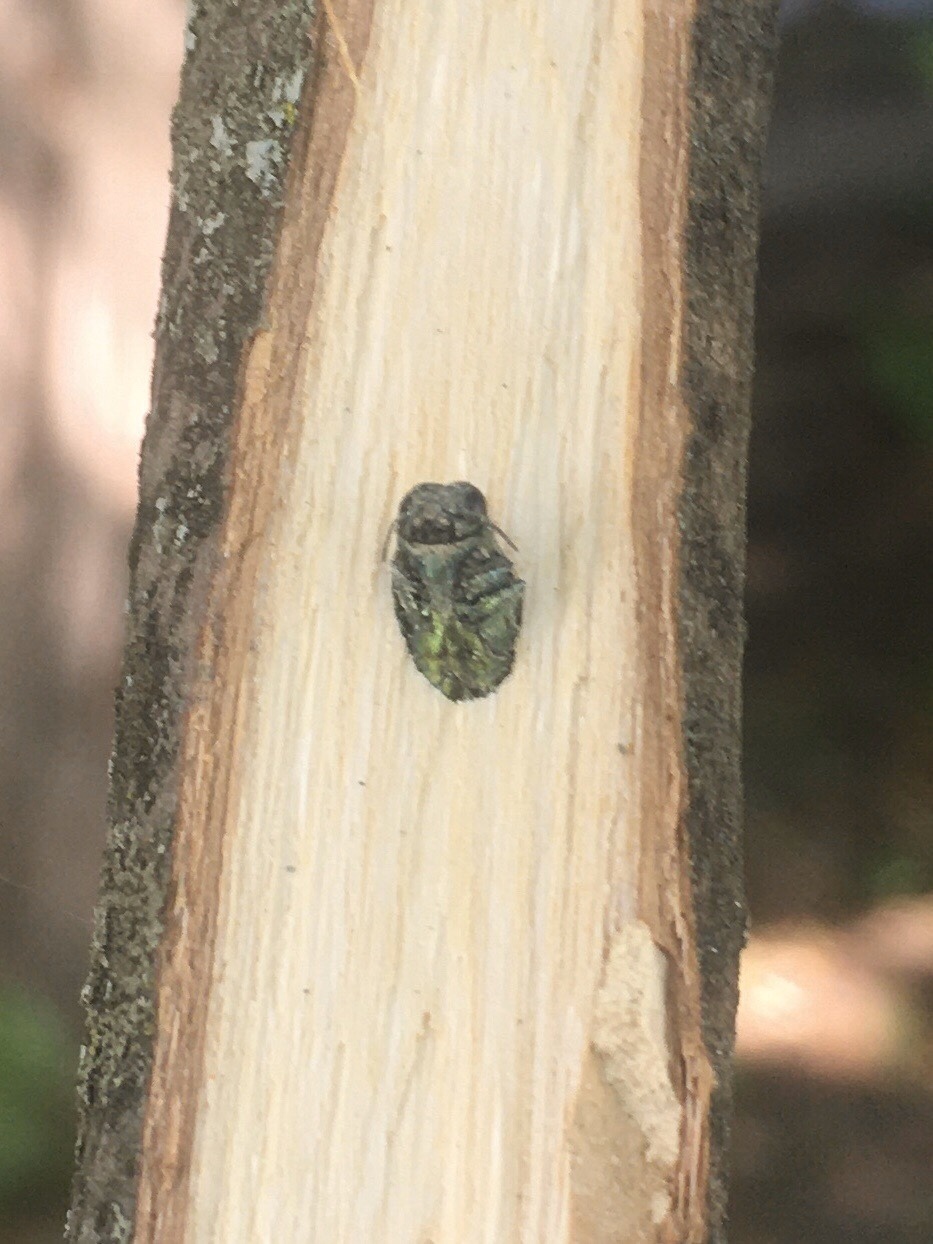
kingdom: Animalia
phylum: Arthropoda
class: Insecta
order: Coleoptera
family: Buprestidae
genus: Agrilus
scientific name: Agrilus planipennis
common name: Emerald ash borer
